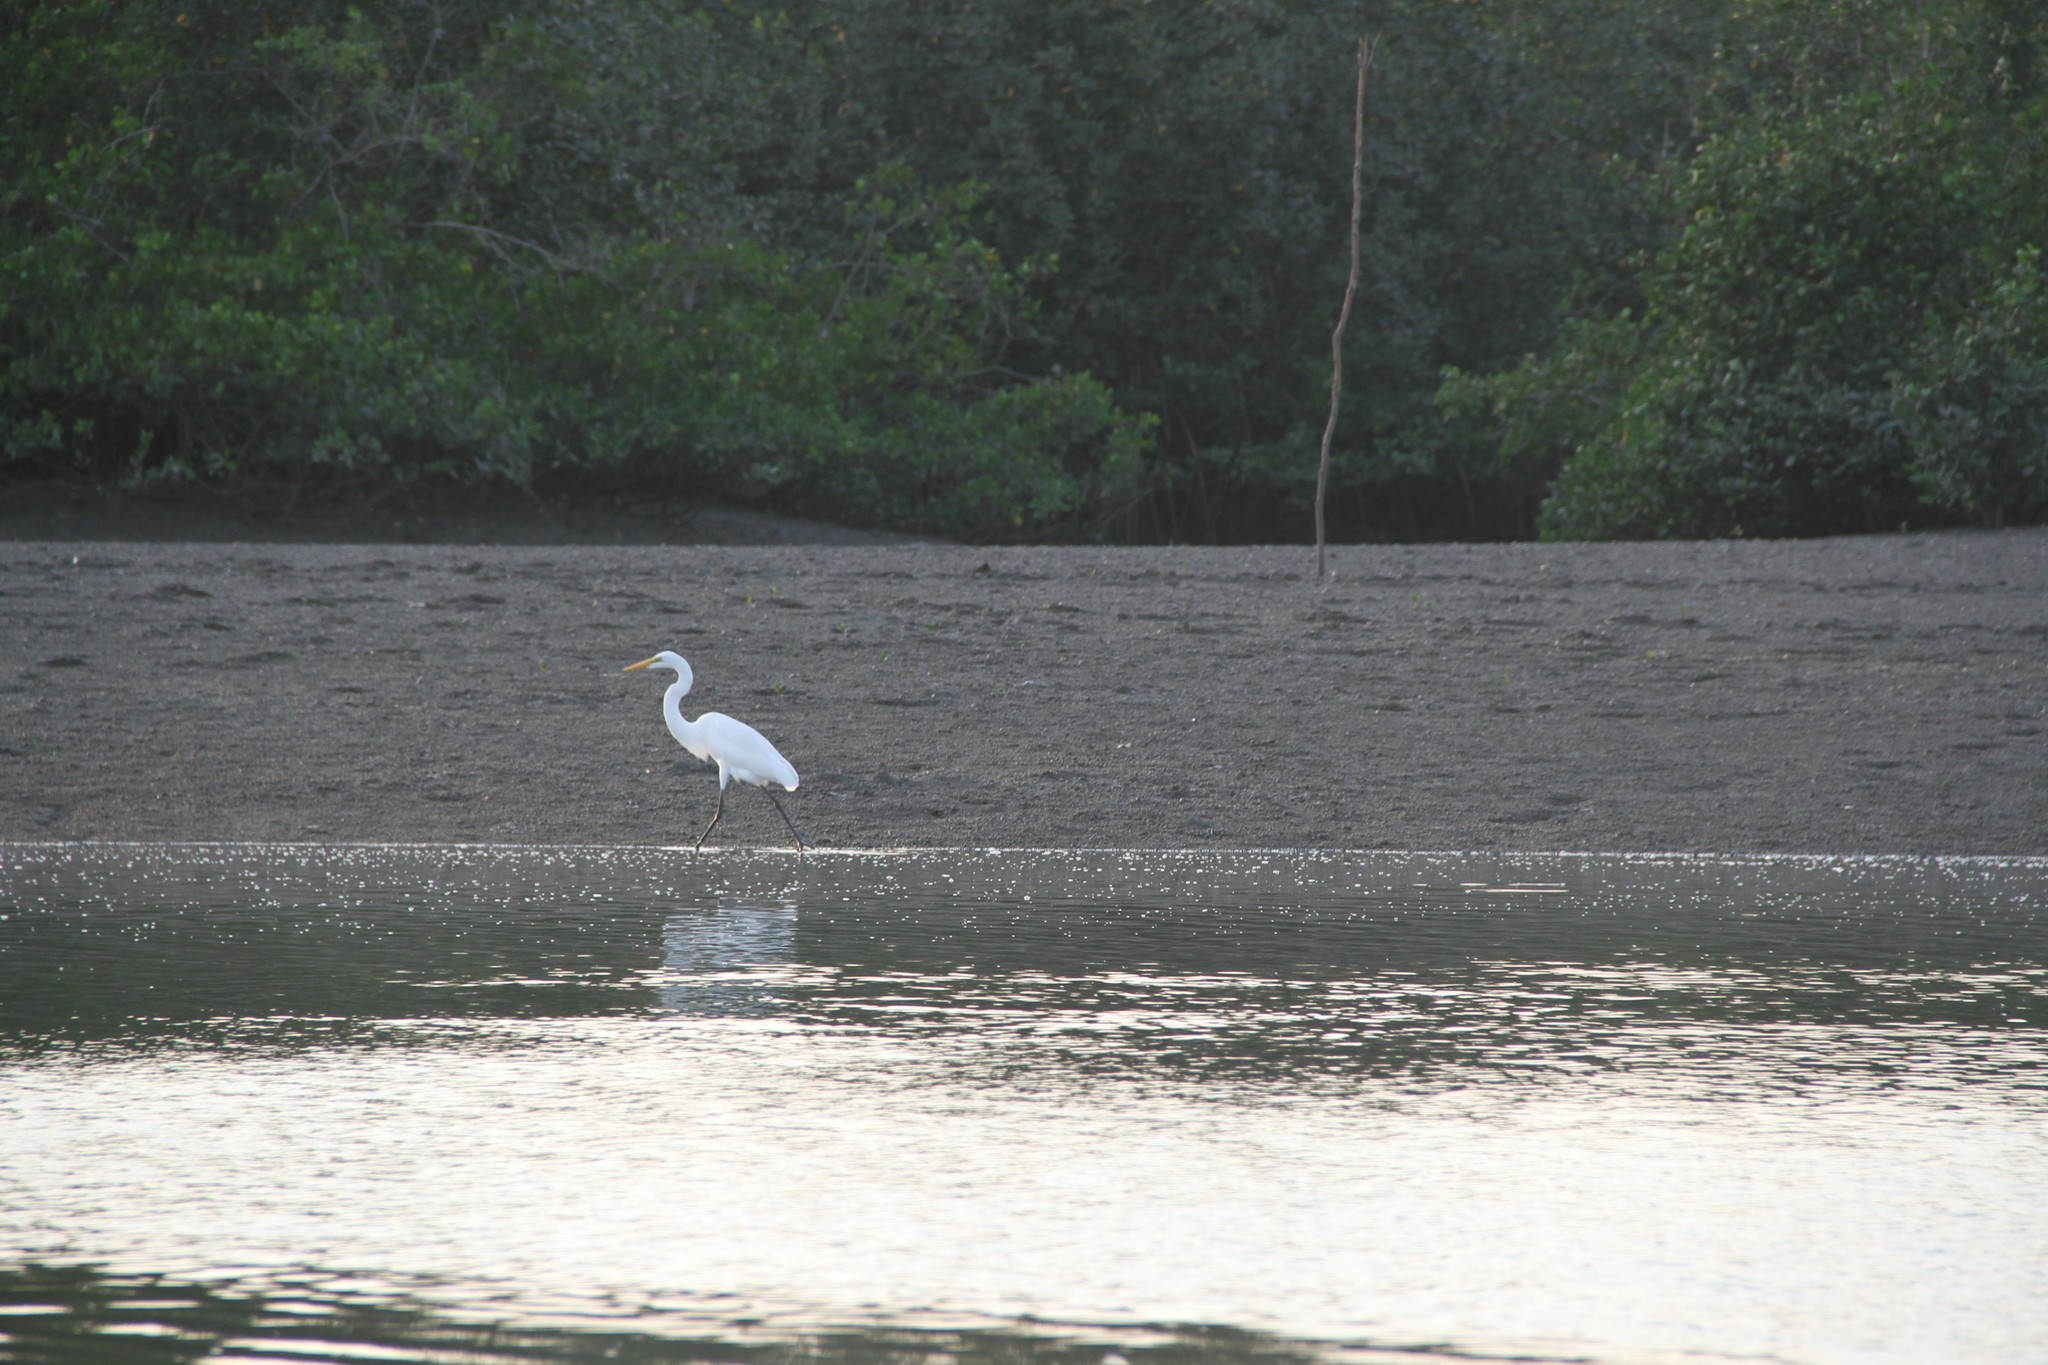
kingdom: Animalia
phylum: Chordata
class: Aves
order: Pelecaniformes
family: Ardeidae
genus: Ardea
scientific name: Ardea alba
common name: Great egret
